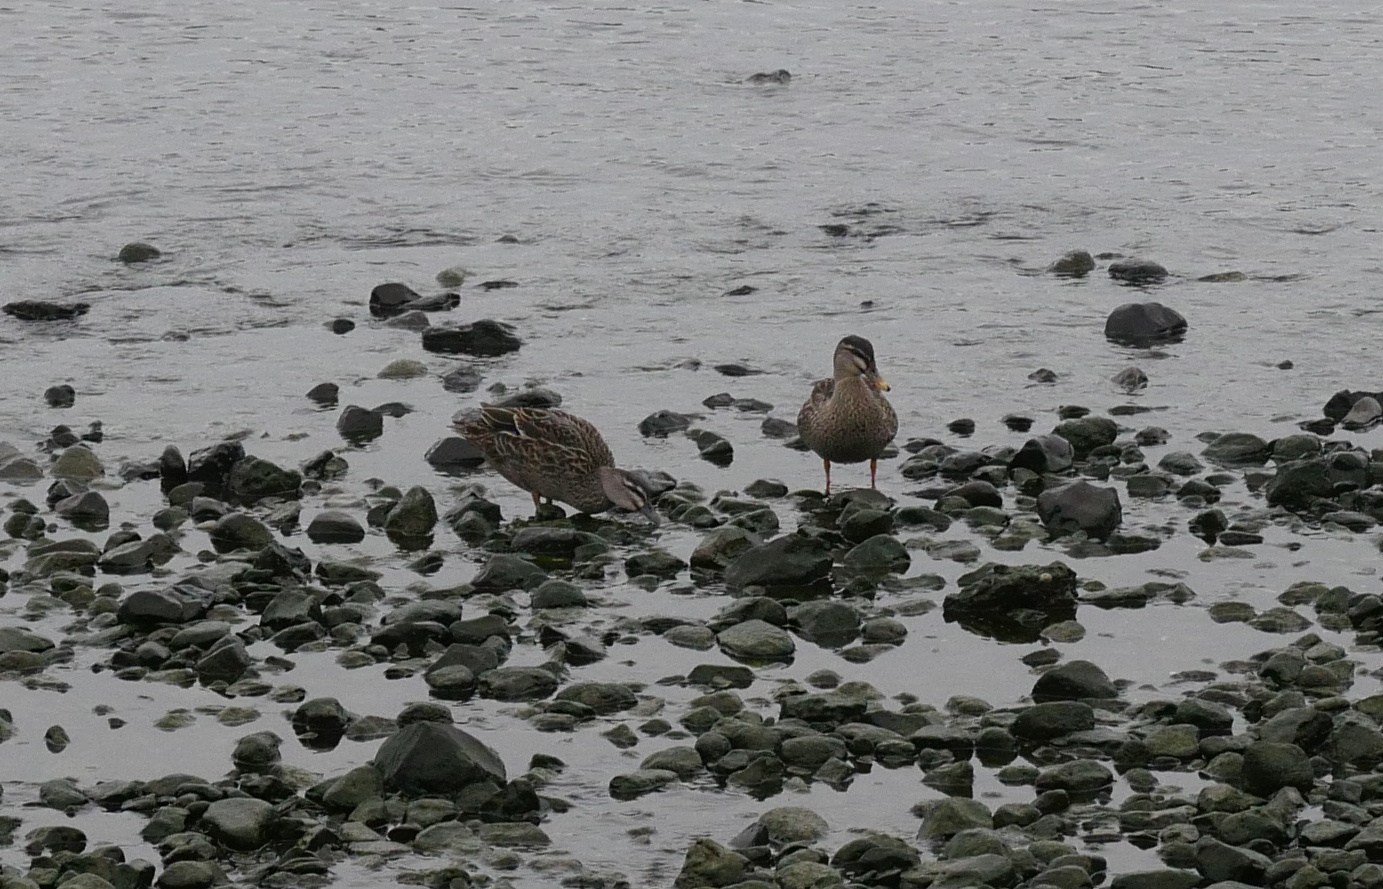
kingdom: Animalia
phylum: Chordata
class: Aves
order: Anseriformes
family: Anatidae
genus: Anas
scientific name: Anas platyrhynchos
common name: Mallard
